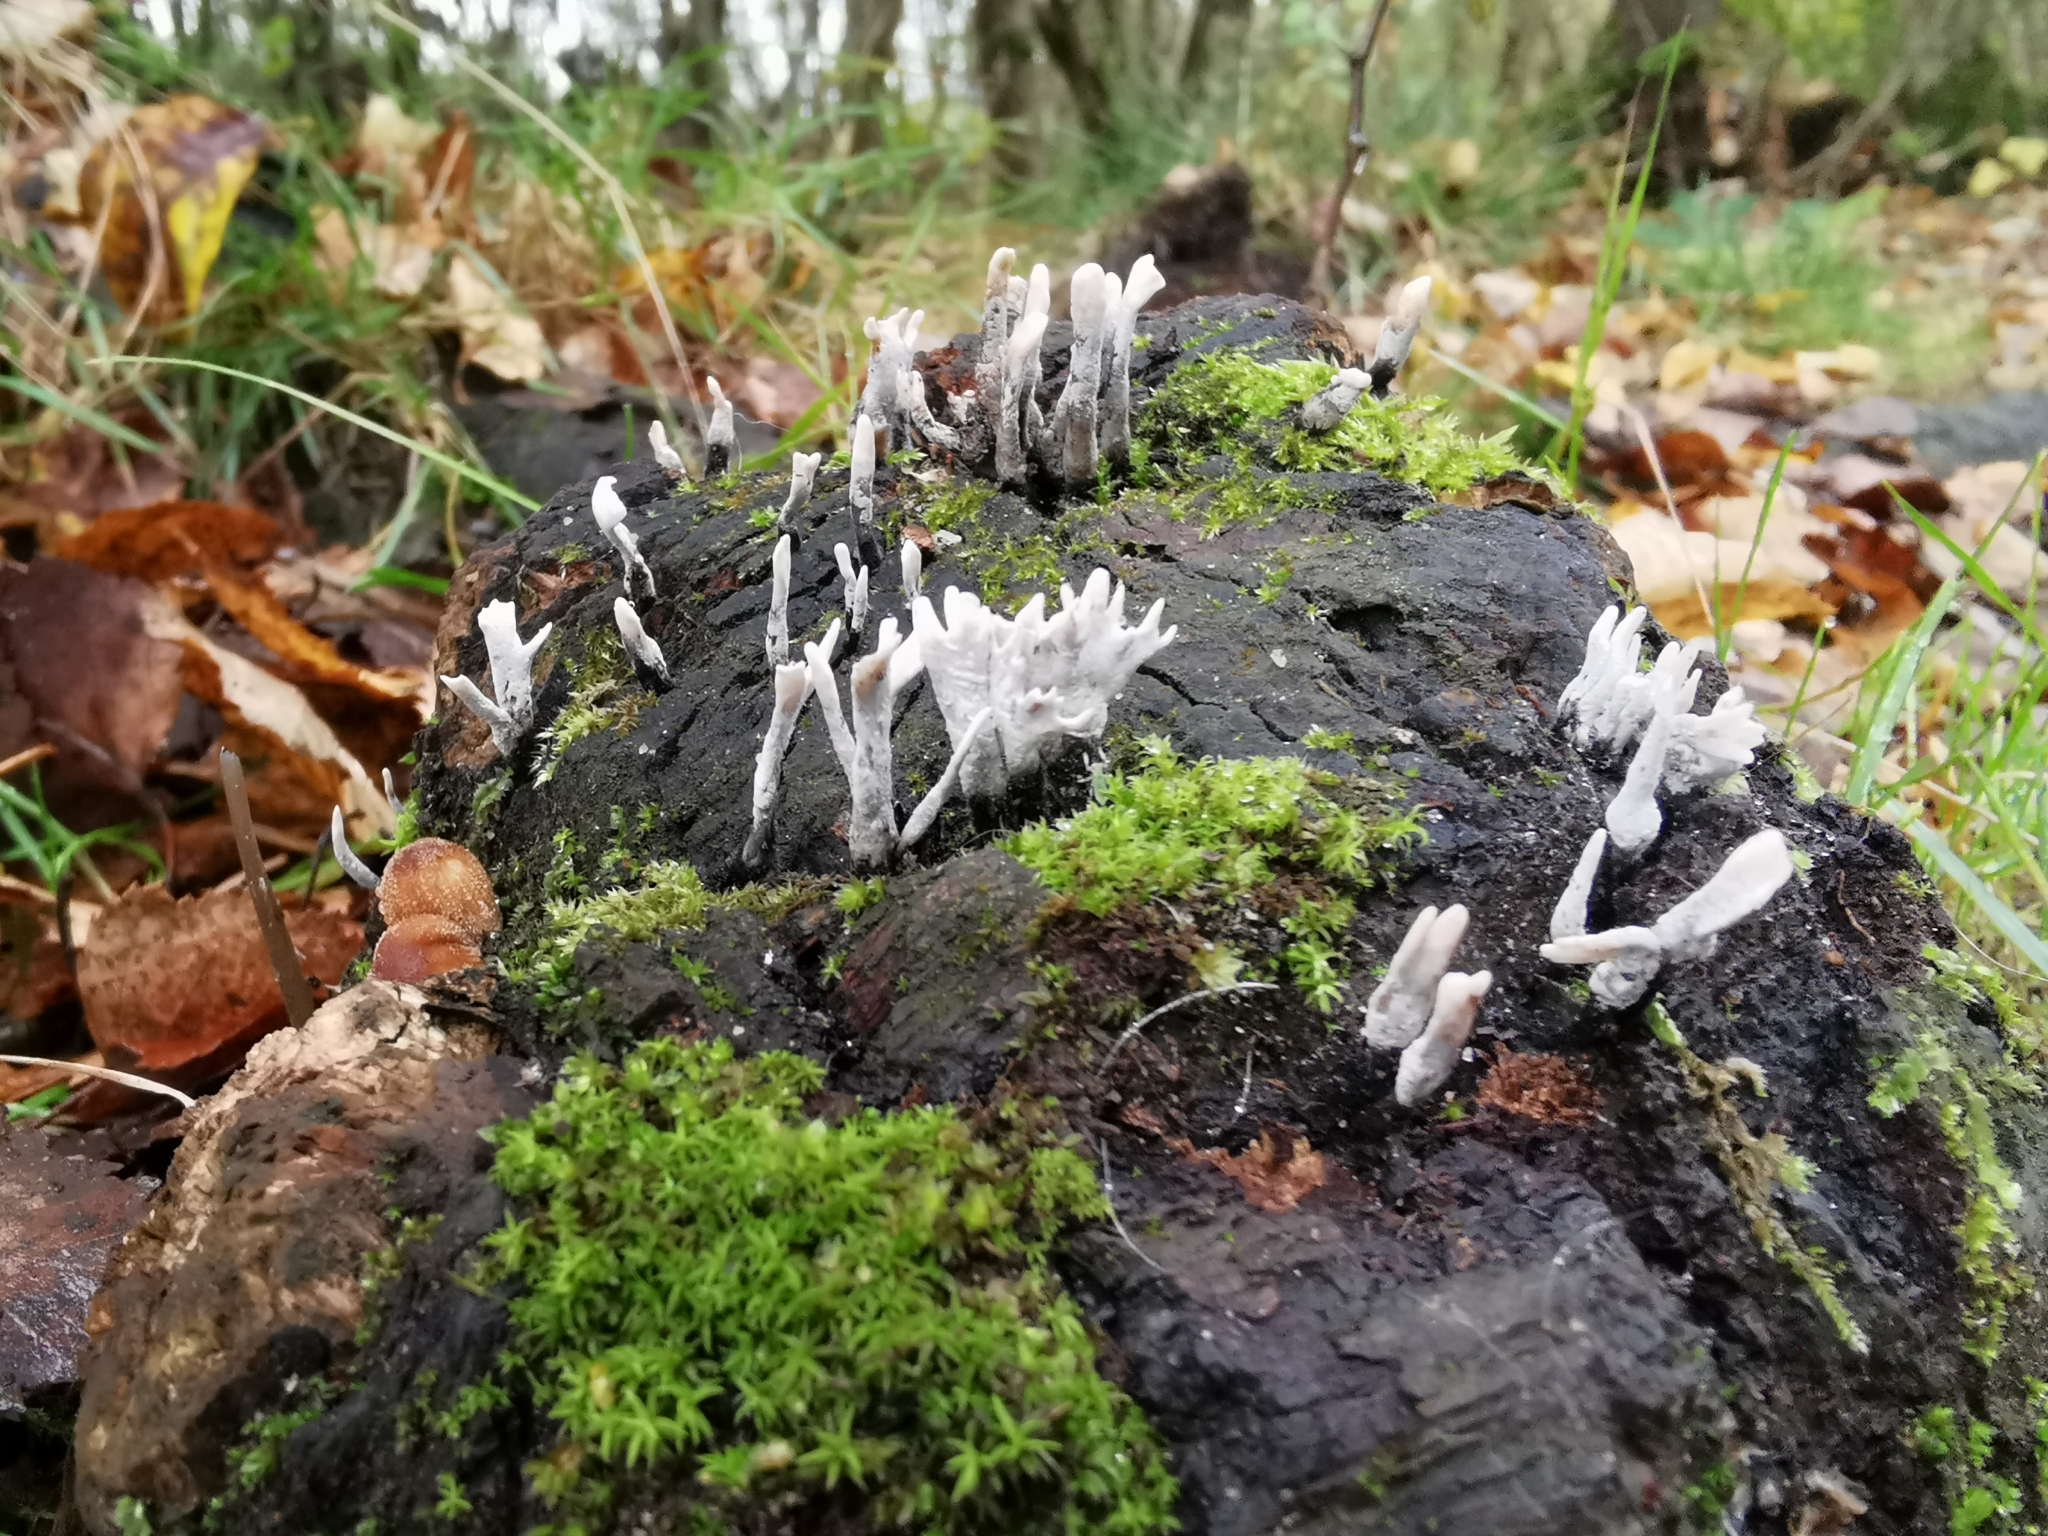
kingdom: Fungi
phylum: Ascomycota
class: Sordariomycetes
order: Xylariales
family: Xylariaceae
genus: Xylaria
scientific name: Xylaria hypoxylon
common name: Candle-snuff fungus
